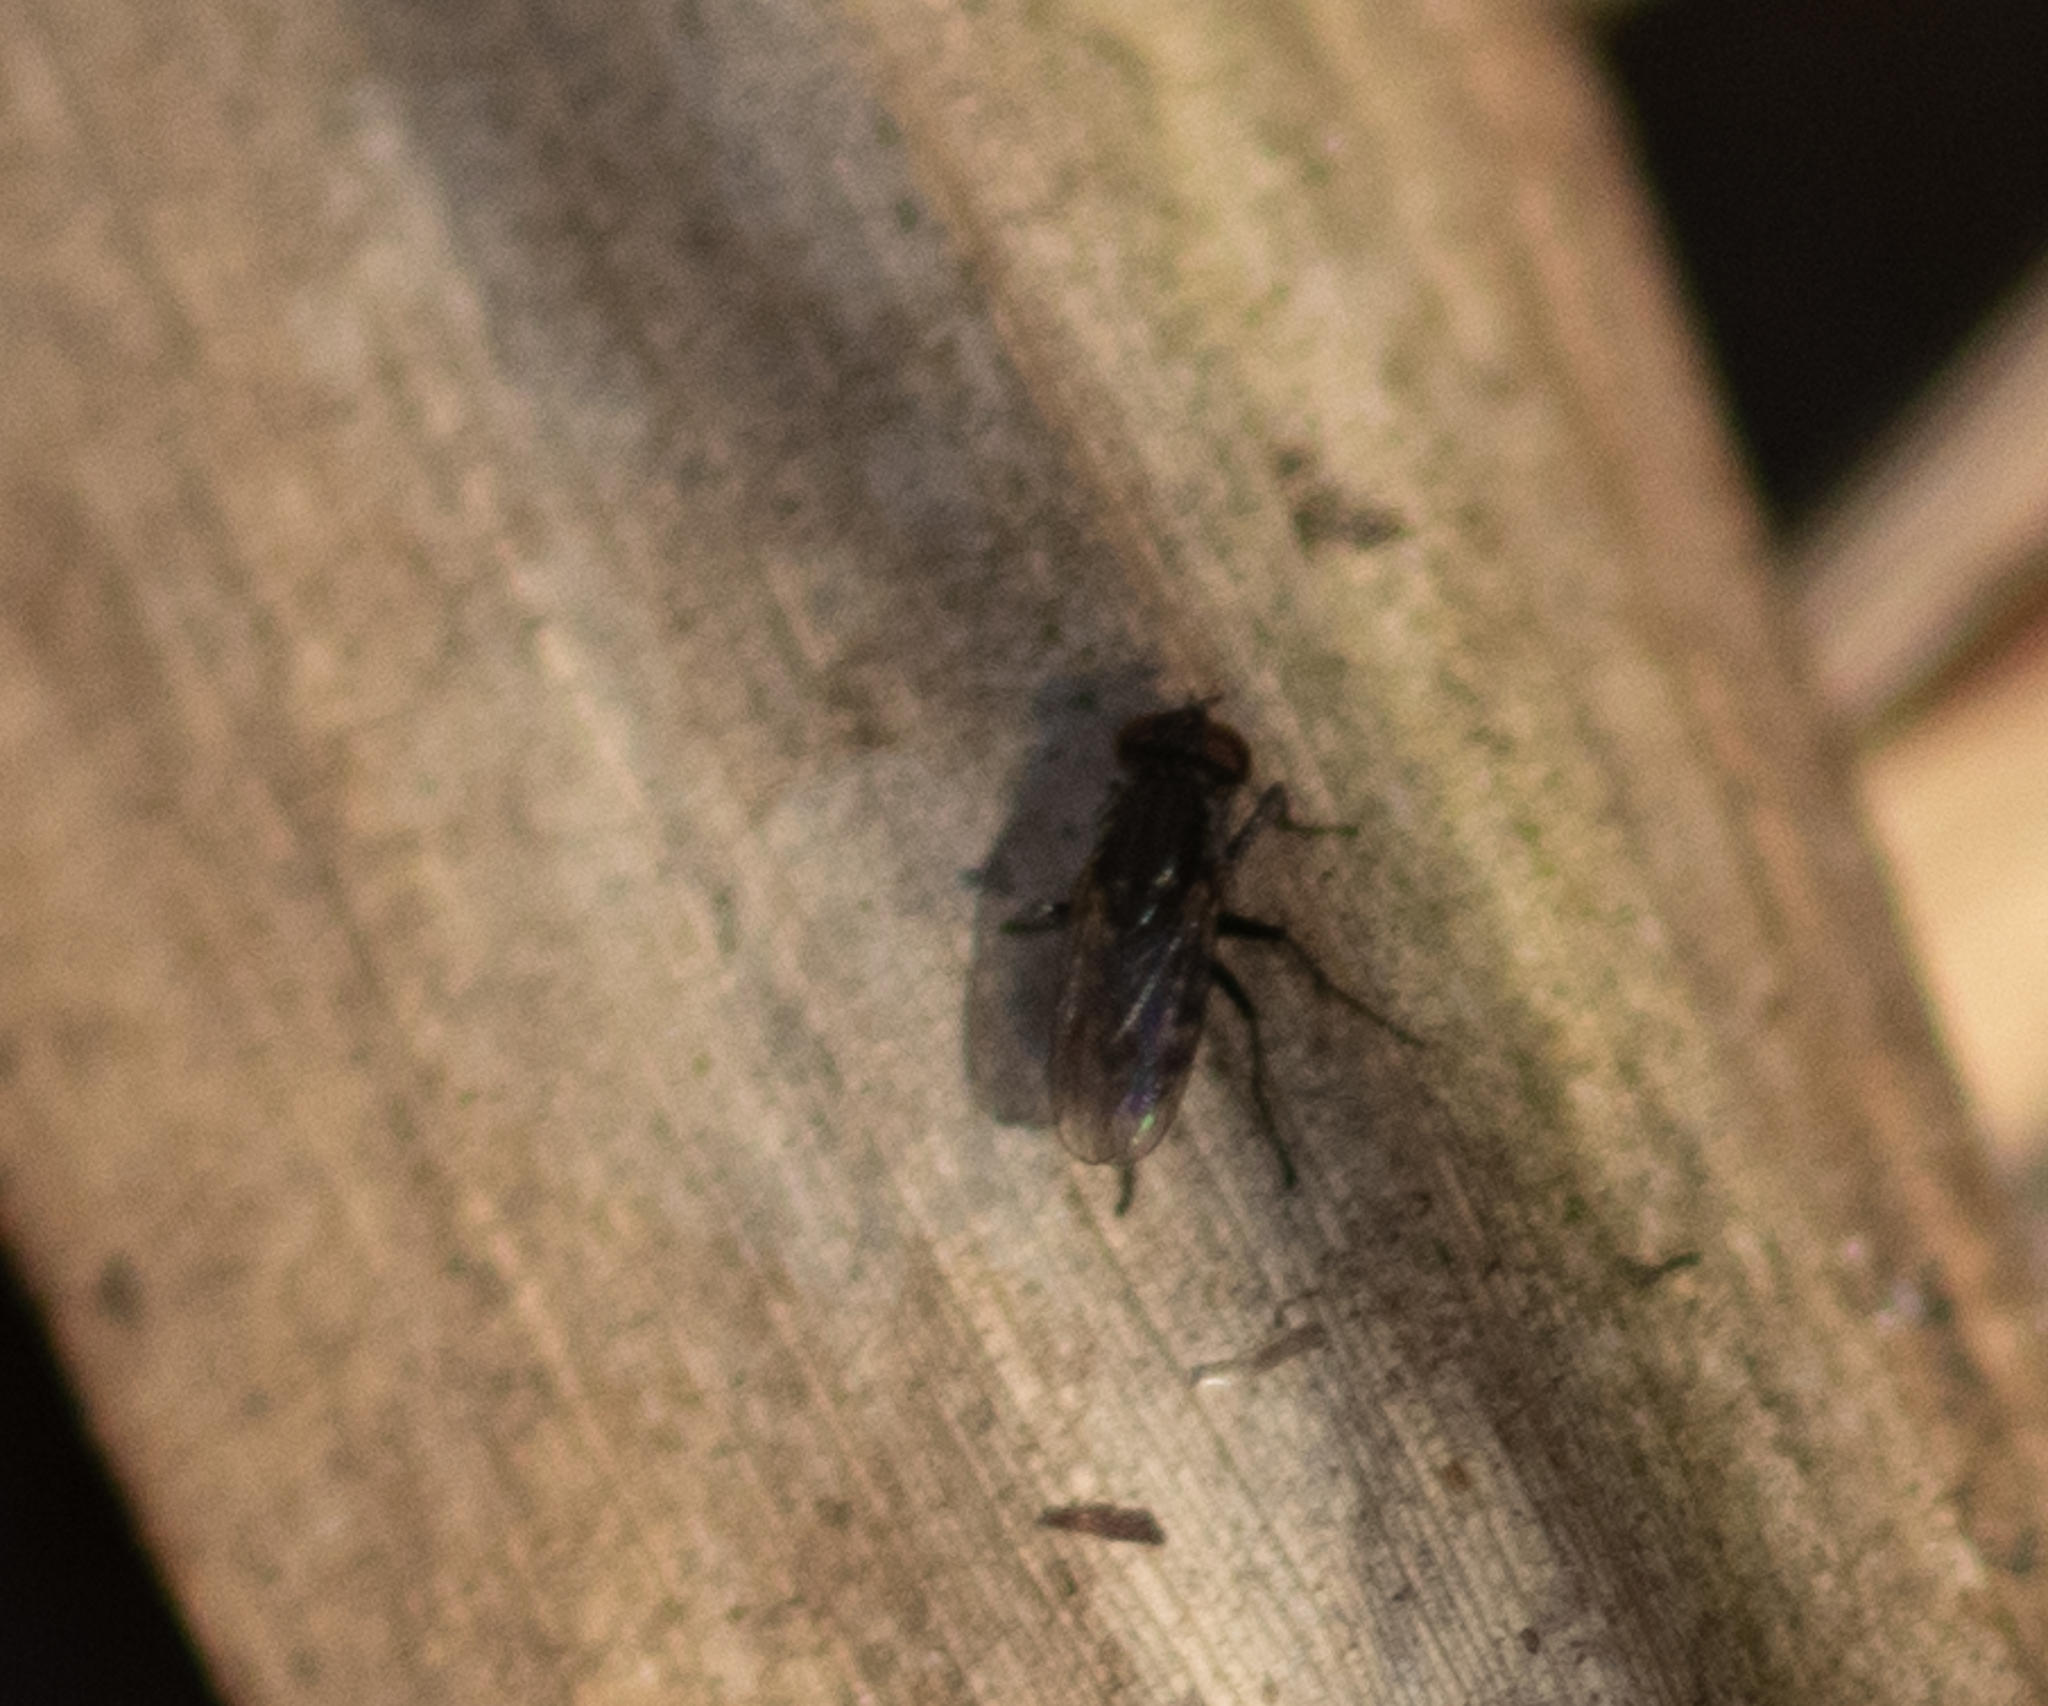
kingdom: Animalia
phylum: Arthropoda
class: Insecta
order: Diptera
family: Muscidae
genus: Lispe
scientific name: Lispe albitarsis
